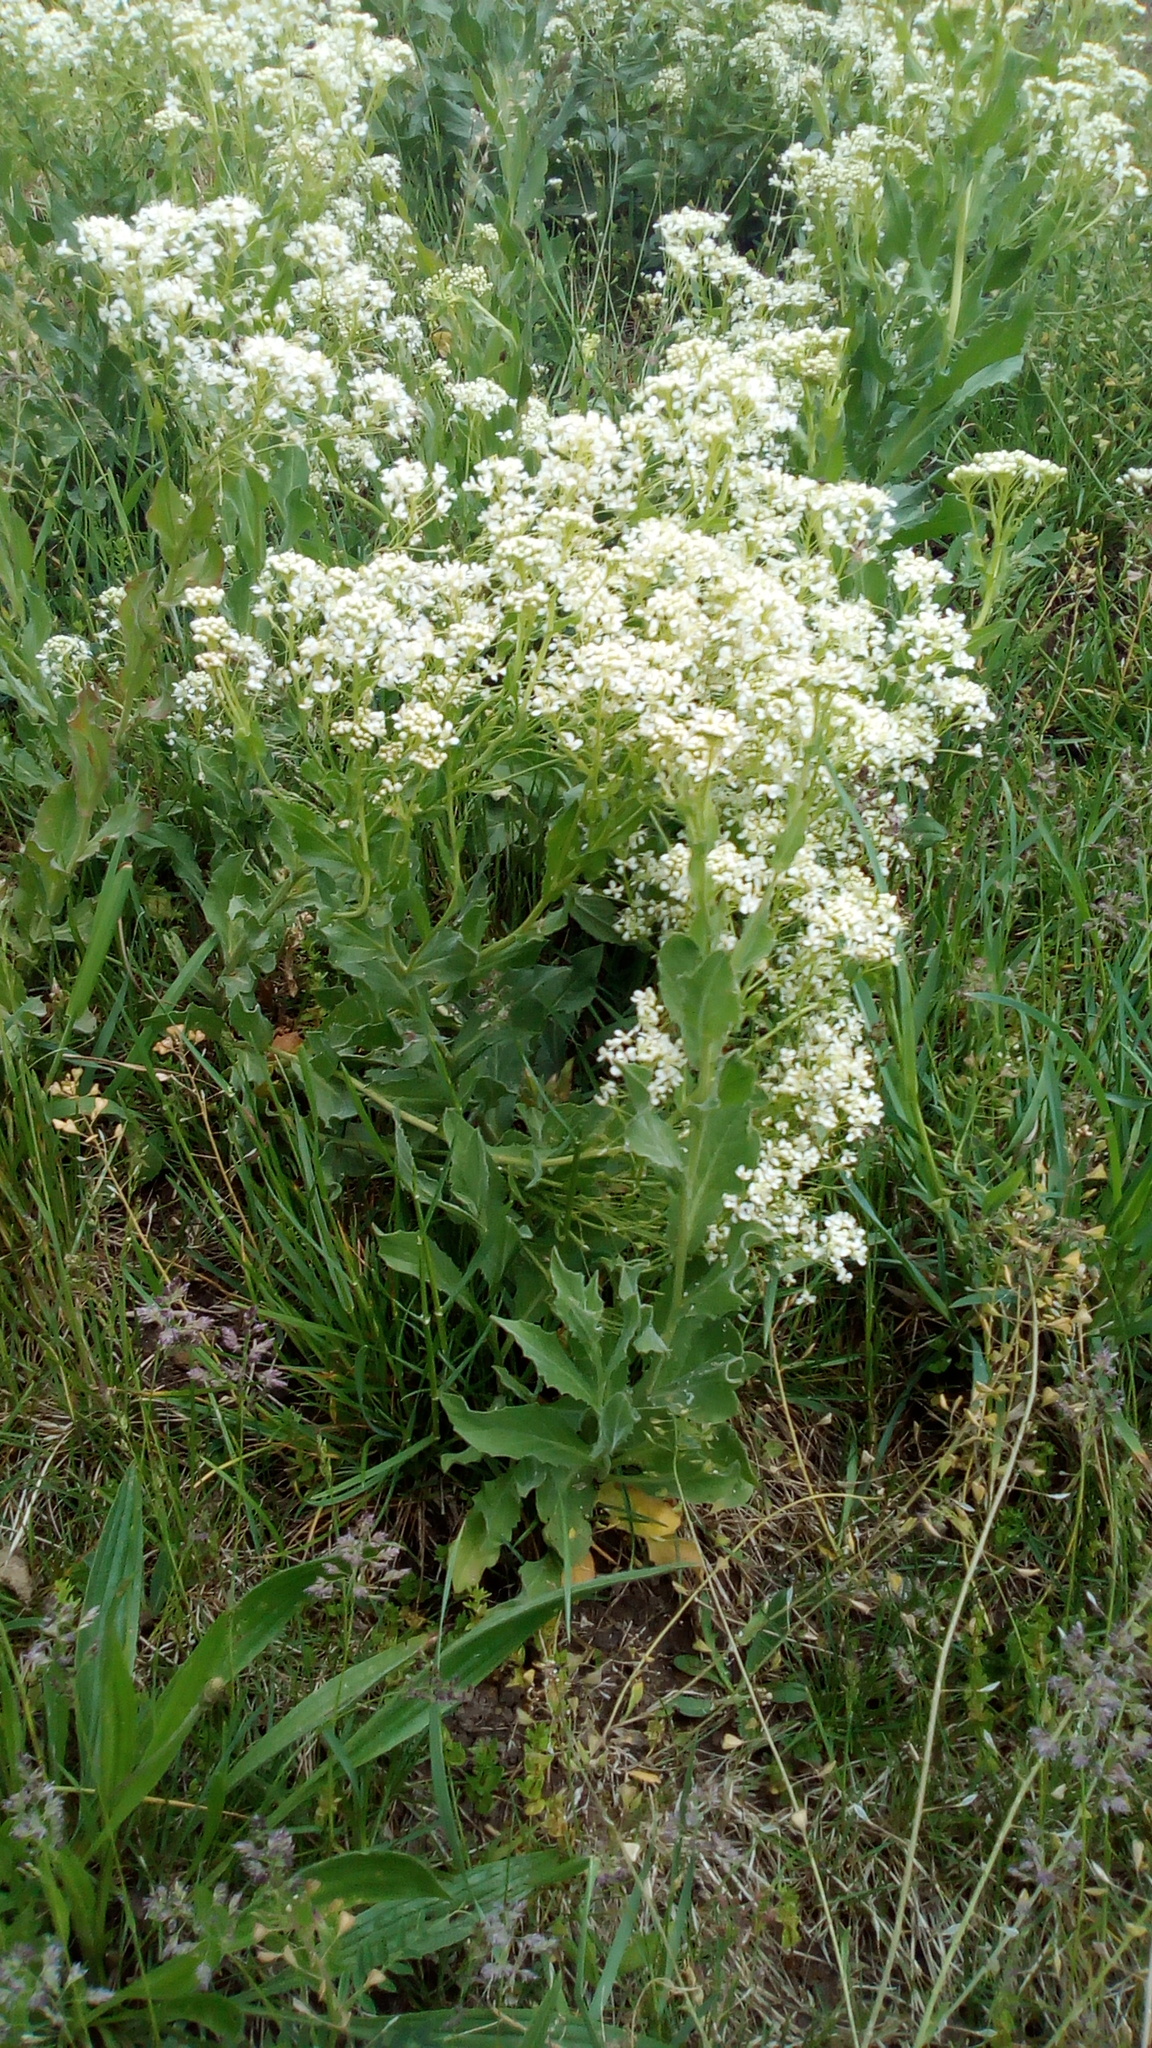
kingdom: Plantae
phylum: Tracheophyta
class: Magnoliopsida
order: Brassicales
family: Brassicaceae
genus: Lepidium
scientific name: Lepidium draba
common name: Hoary cress
